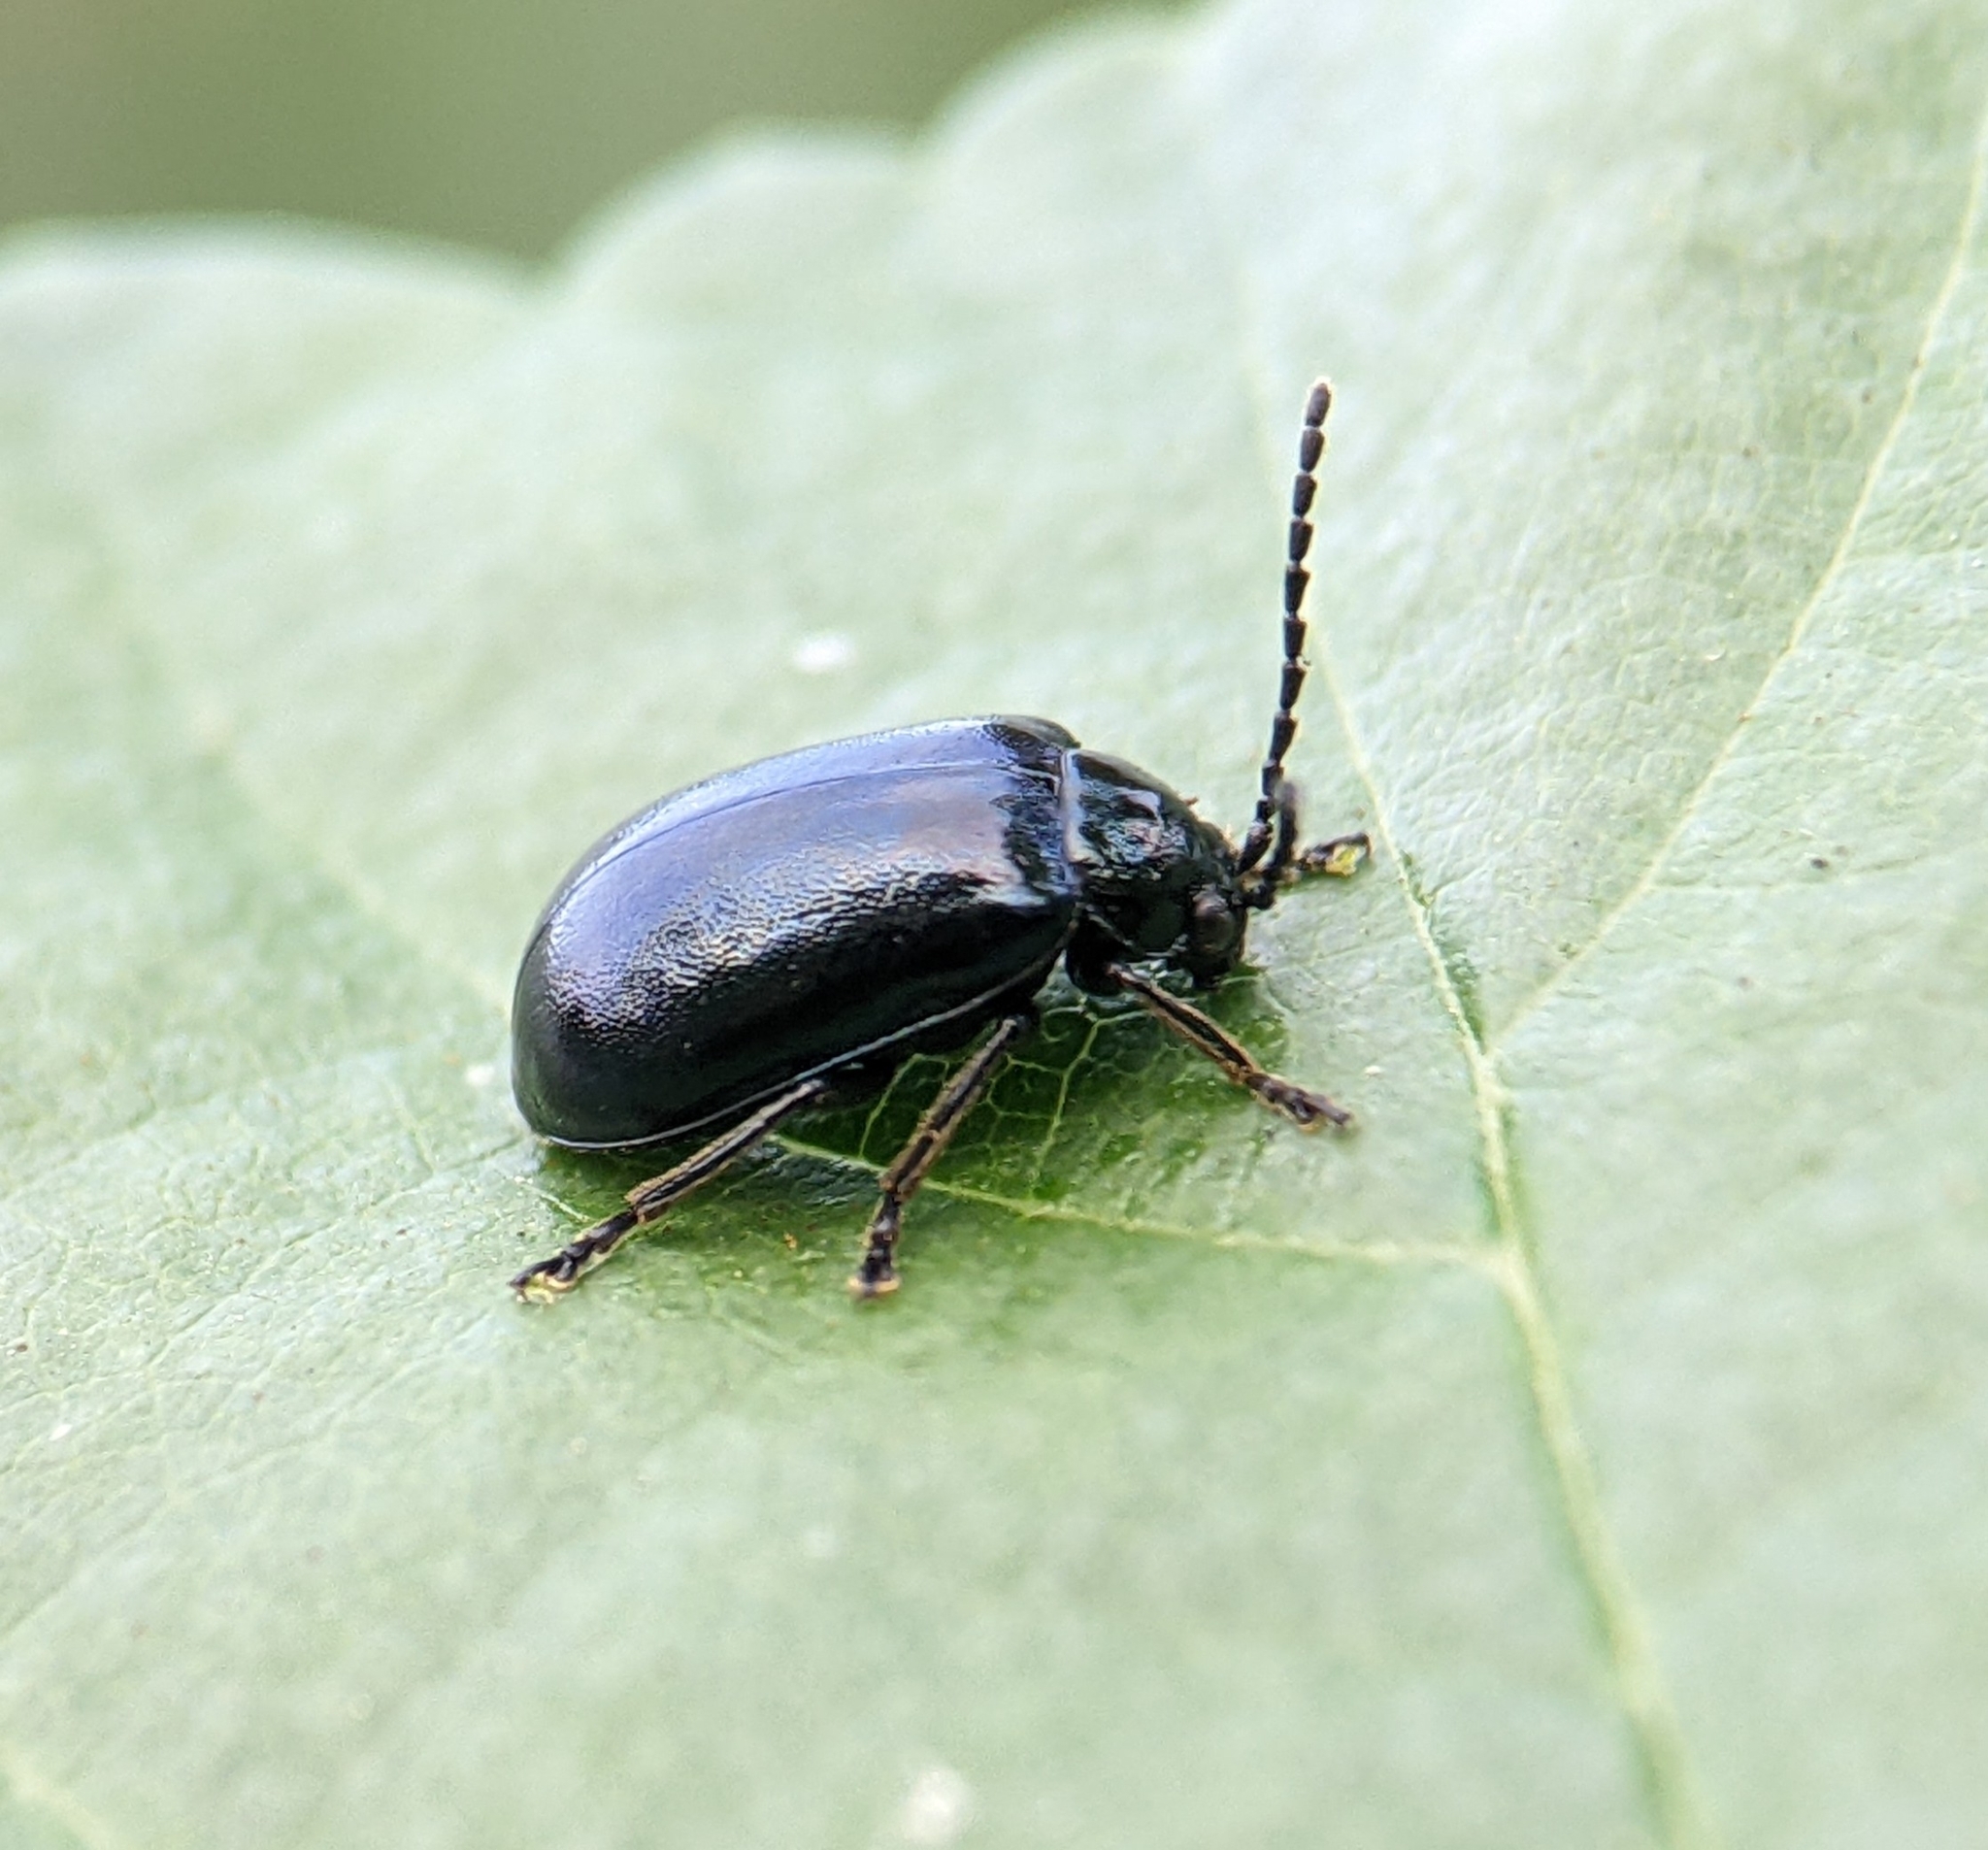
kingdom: Animalia
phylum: Arthropoda
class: Insecta
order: Coleoptera
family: Chrysomelidae
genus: Agelastica
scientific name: Agelastica alni
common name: Alder leaf beetle
